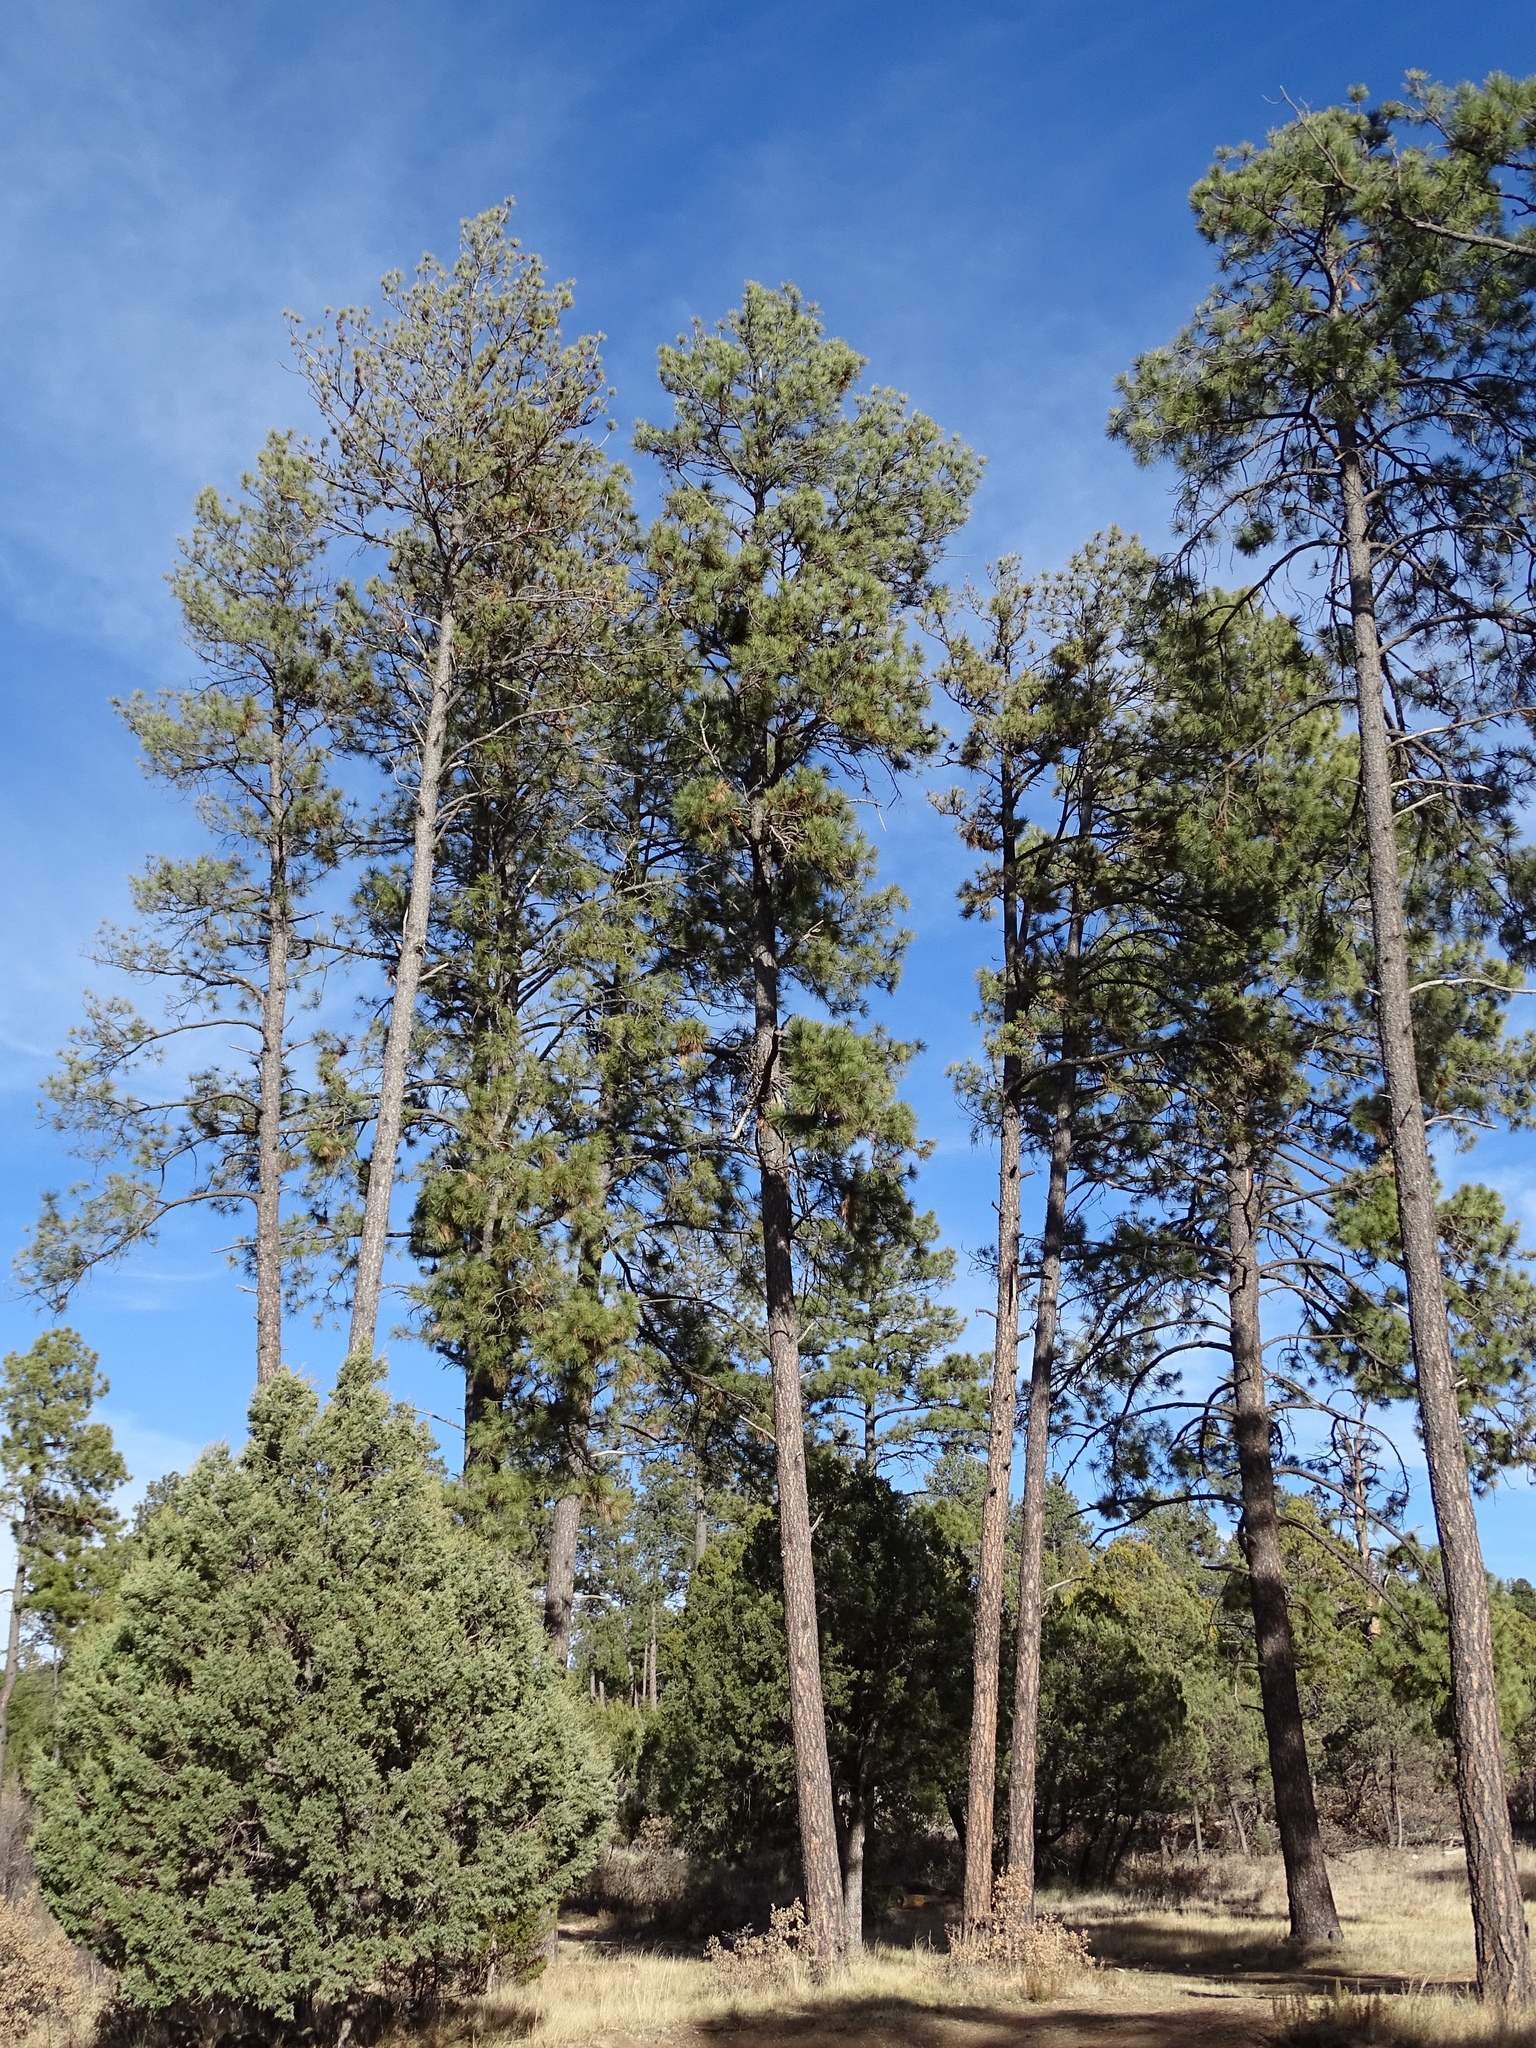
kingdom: Plantae
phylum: Tracheophyta
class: Pinopsida
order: Pinales
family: Pinaceae
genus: Pinus
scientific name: Pinus ponderosa
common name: Western yellow-pine
